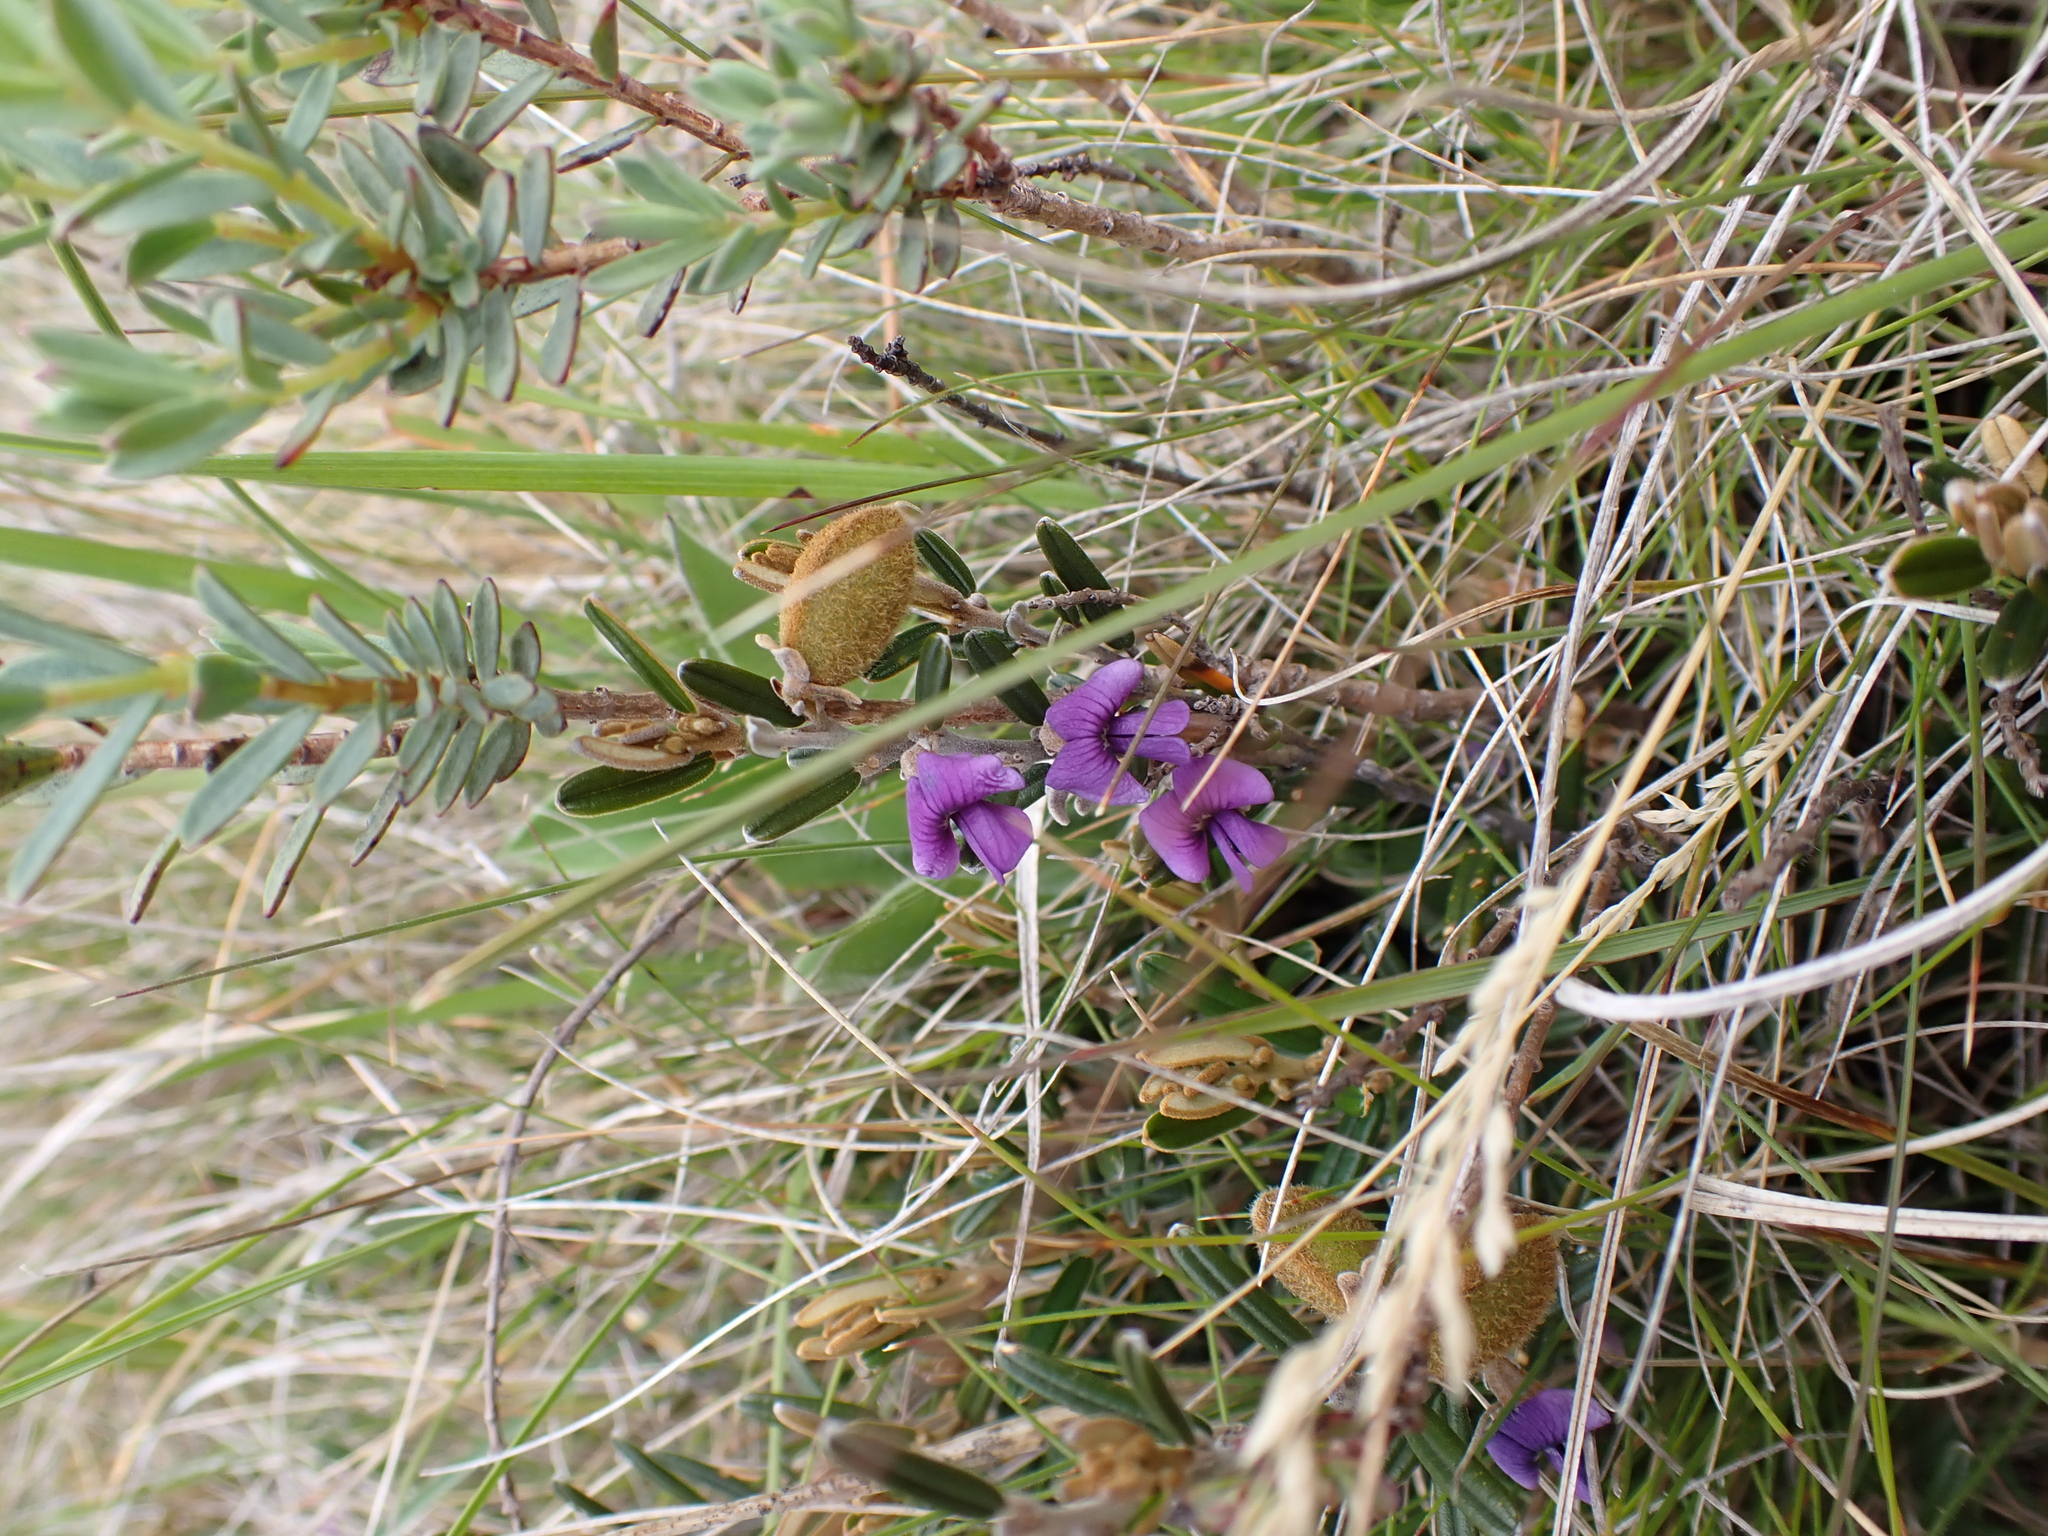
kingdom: Plantae
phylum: Tracheophyta
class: Magnoliopsida
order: Fabales
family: Fabaceae
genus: Hovea
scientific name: Hovea montana
